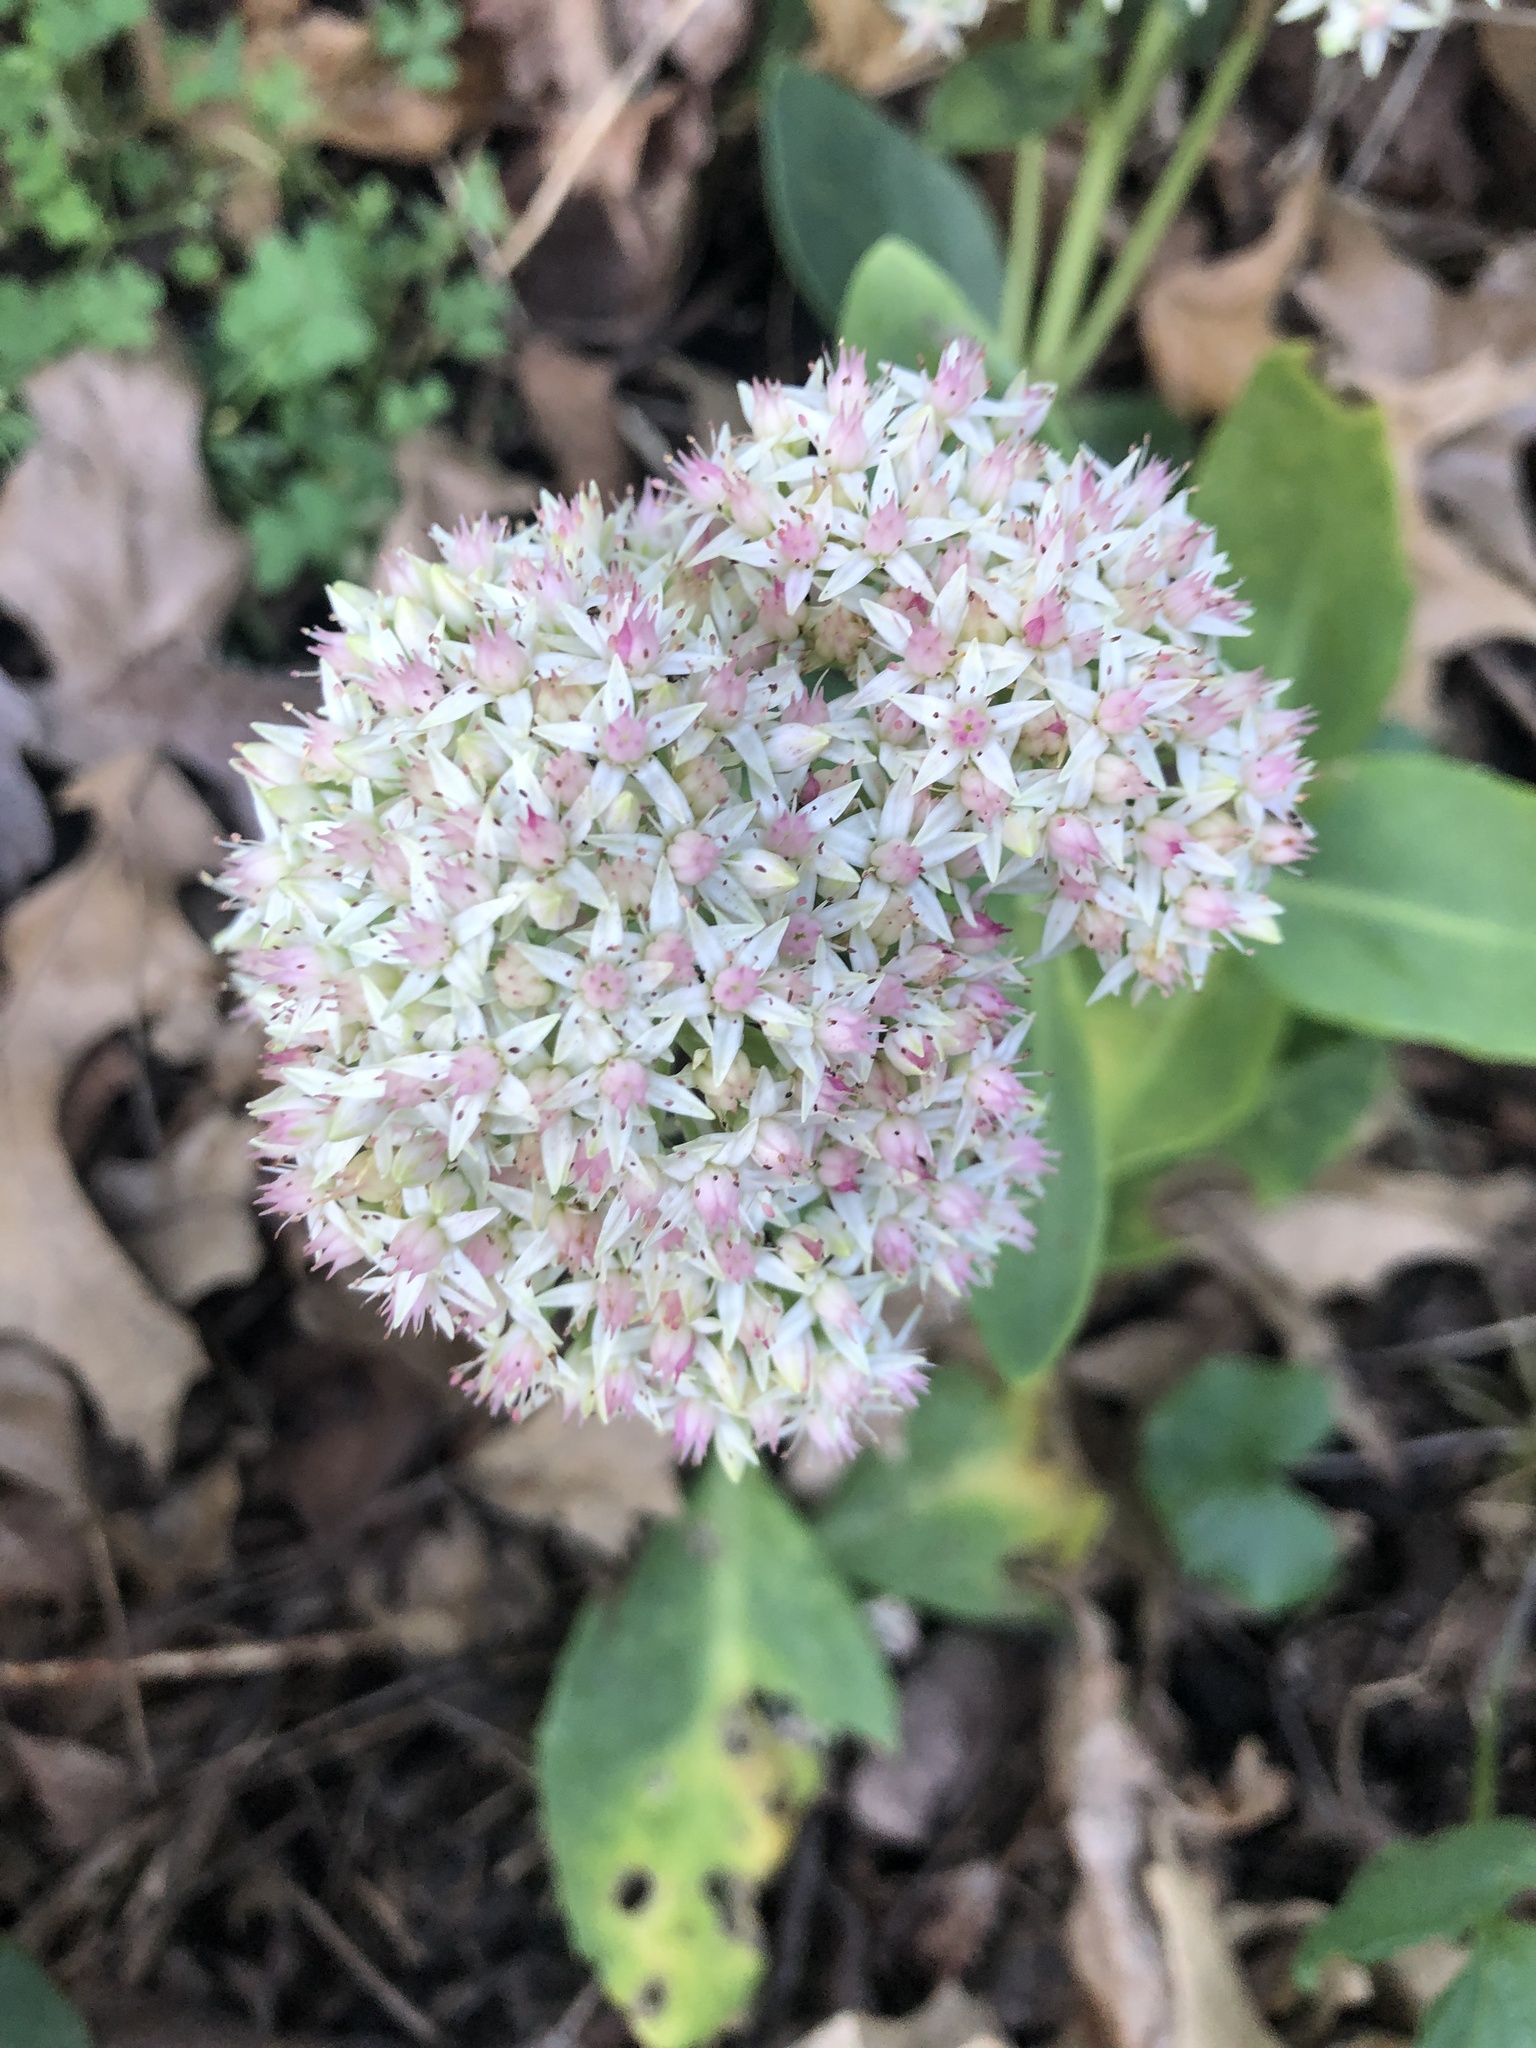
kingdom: Plantae
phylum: Tracheophyta
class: Magnoliopsida
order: Saxifragales
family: Crassulaceae
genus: Hylotelephium
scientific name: Hylotelephium erythrostictum
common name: Garden stonecrop
